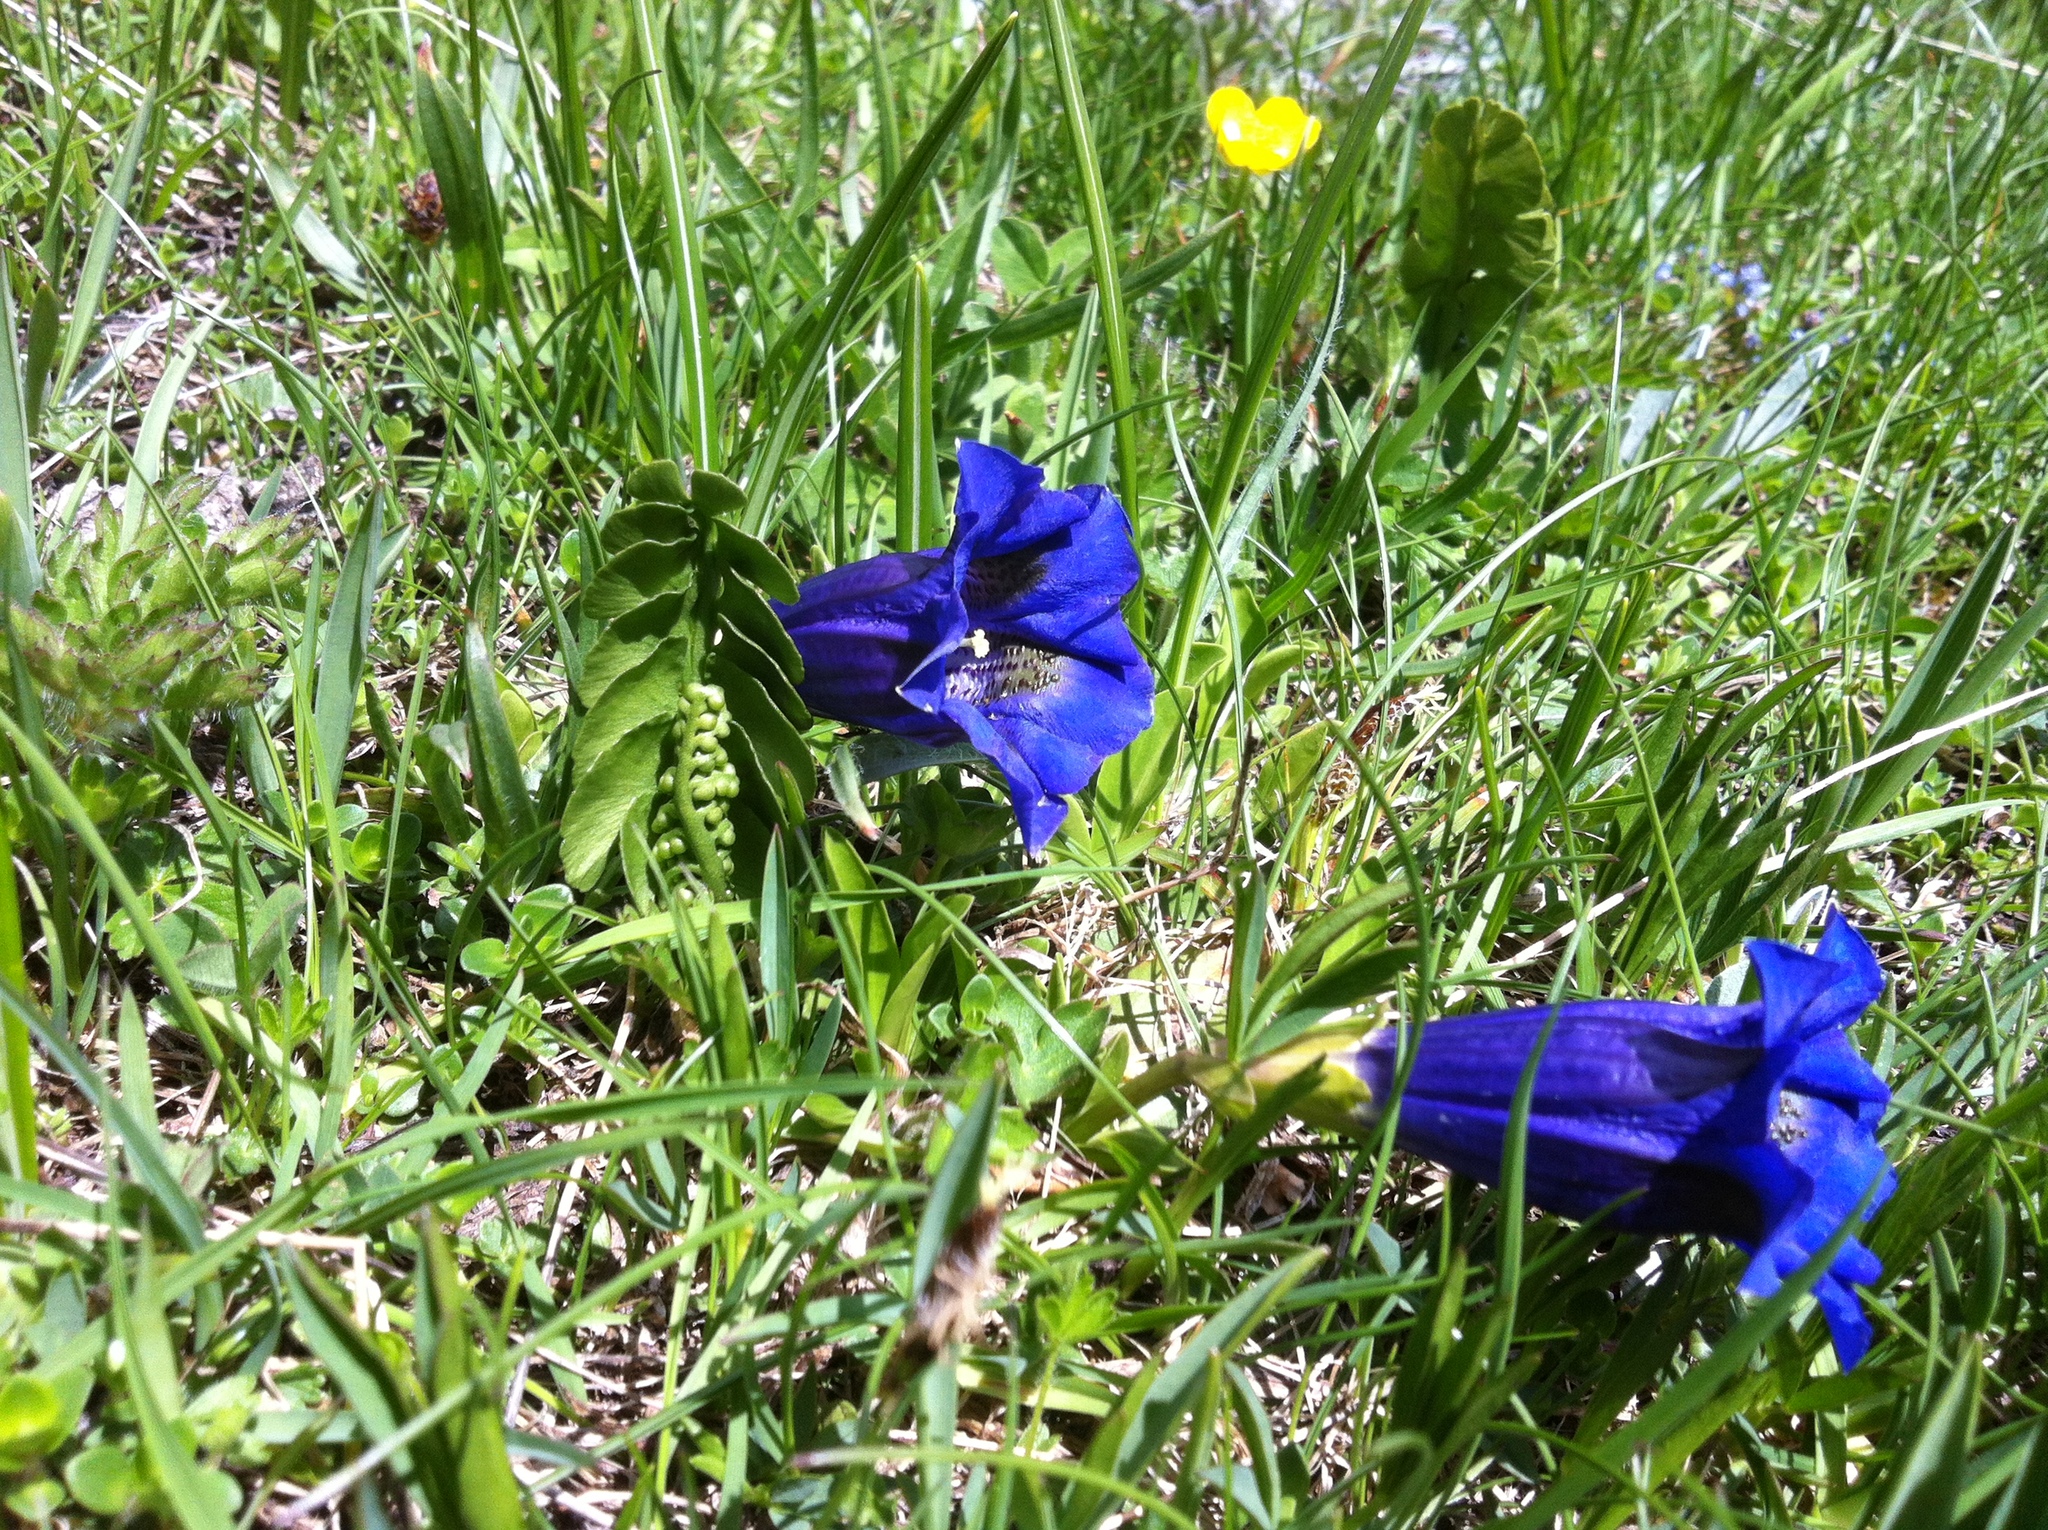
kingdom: Plantae
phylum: Tracheophyta
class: Polypodiopsida
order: Ophioglossales
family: Ophioglossaceae
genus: Botrychium
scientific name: Botrychium lunaria
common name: Moonwort
